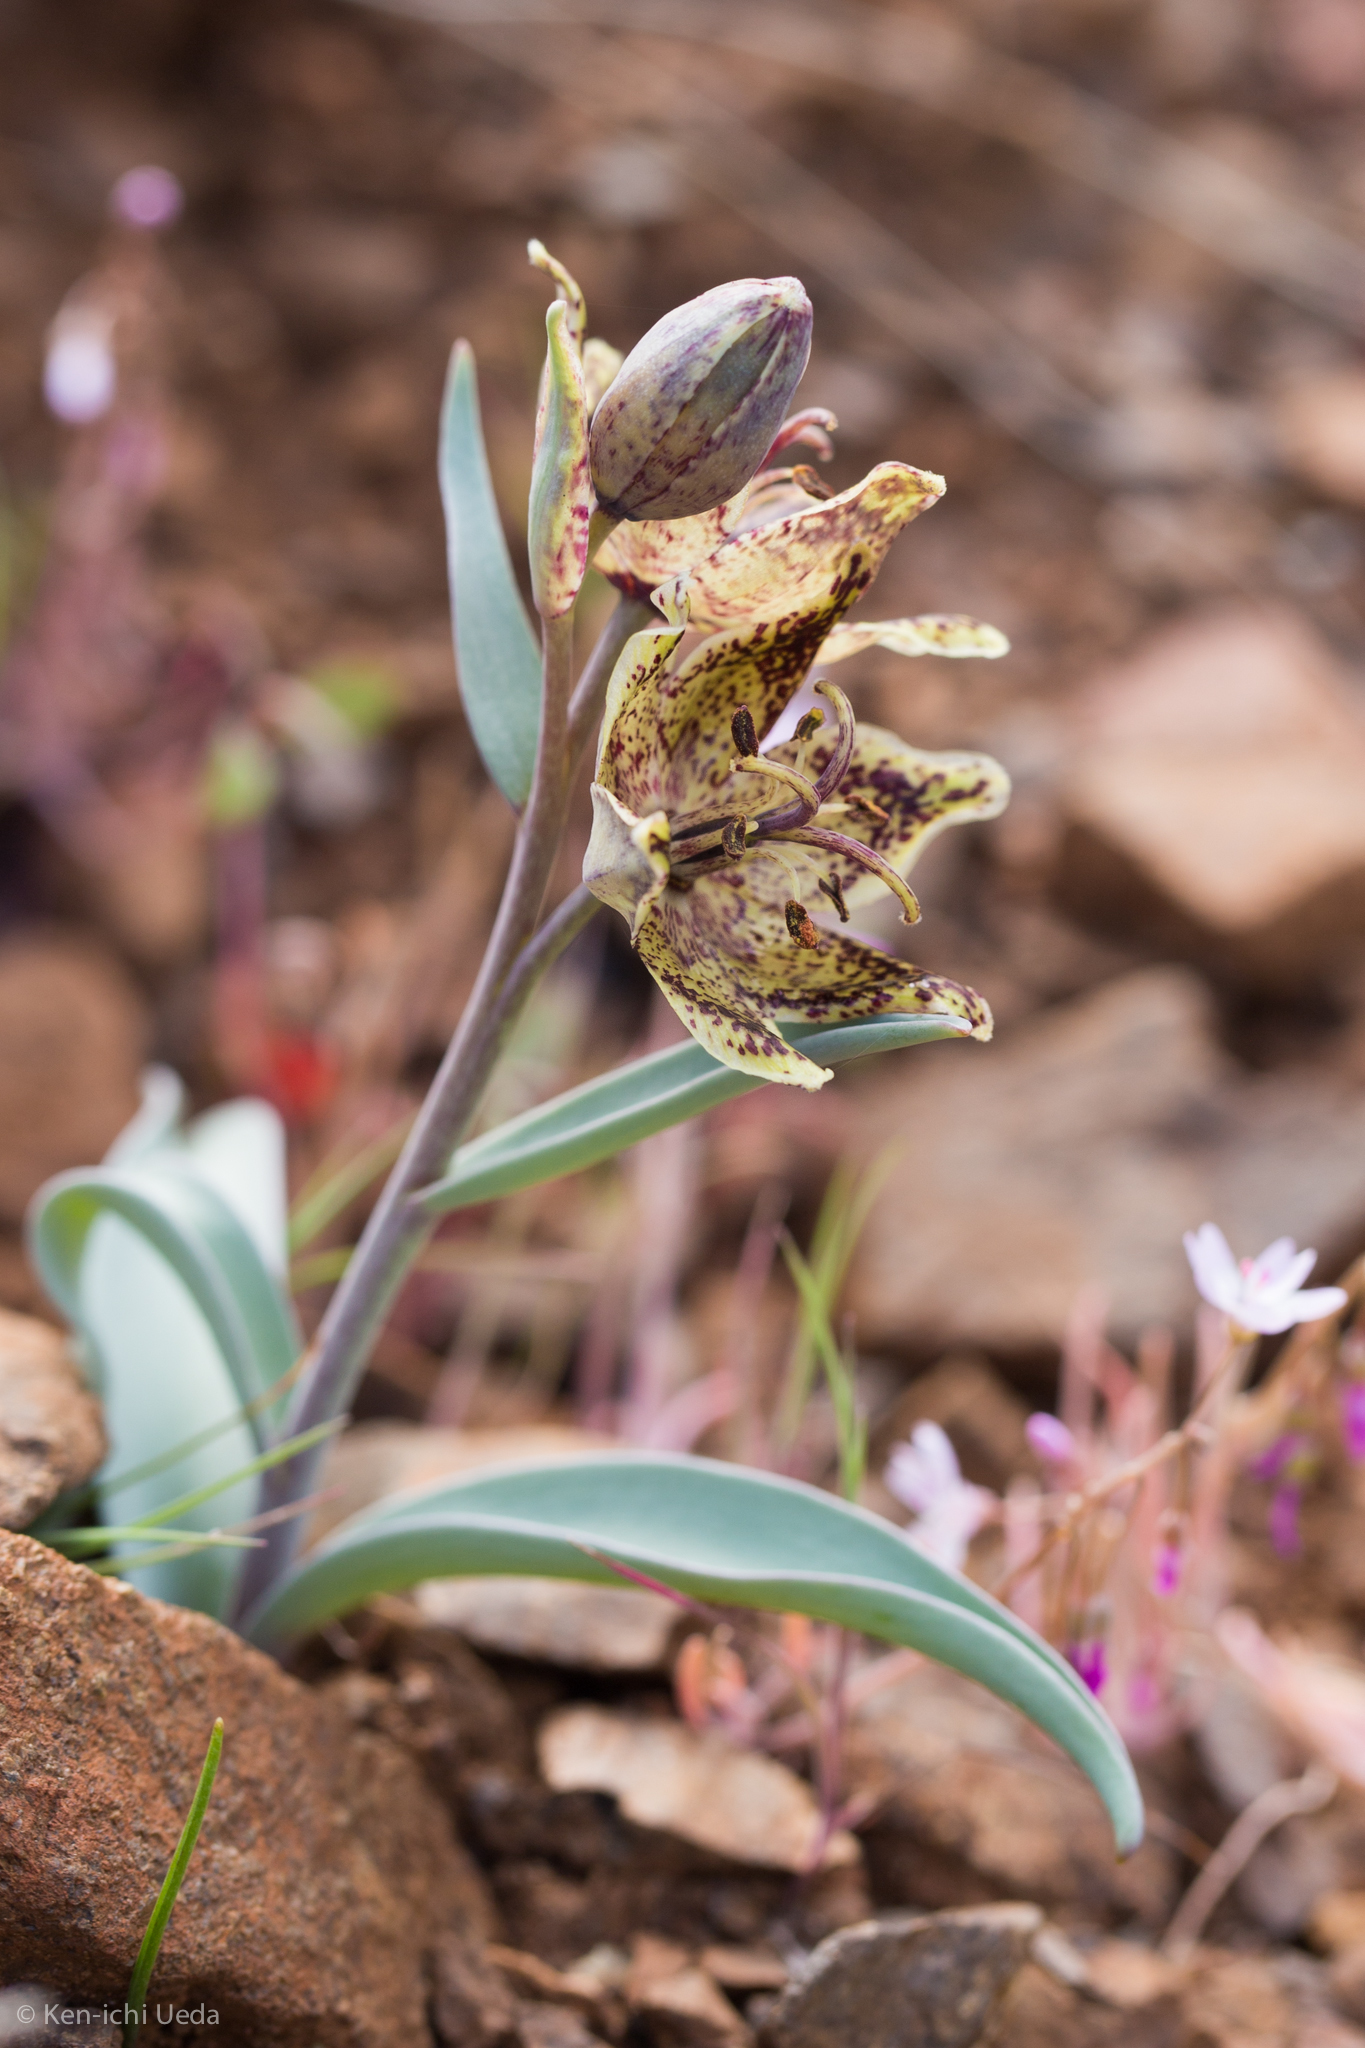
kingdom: Plantae
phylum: Tracheophyta
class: Liliopsida
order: Liliales
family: Liliaceae
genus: Fritillaria
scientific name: Fritillaria falcata
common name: Talus fritillary
